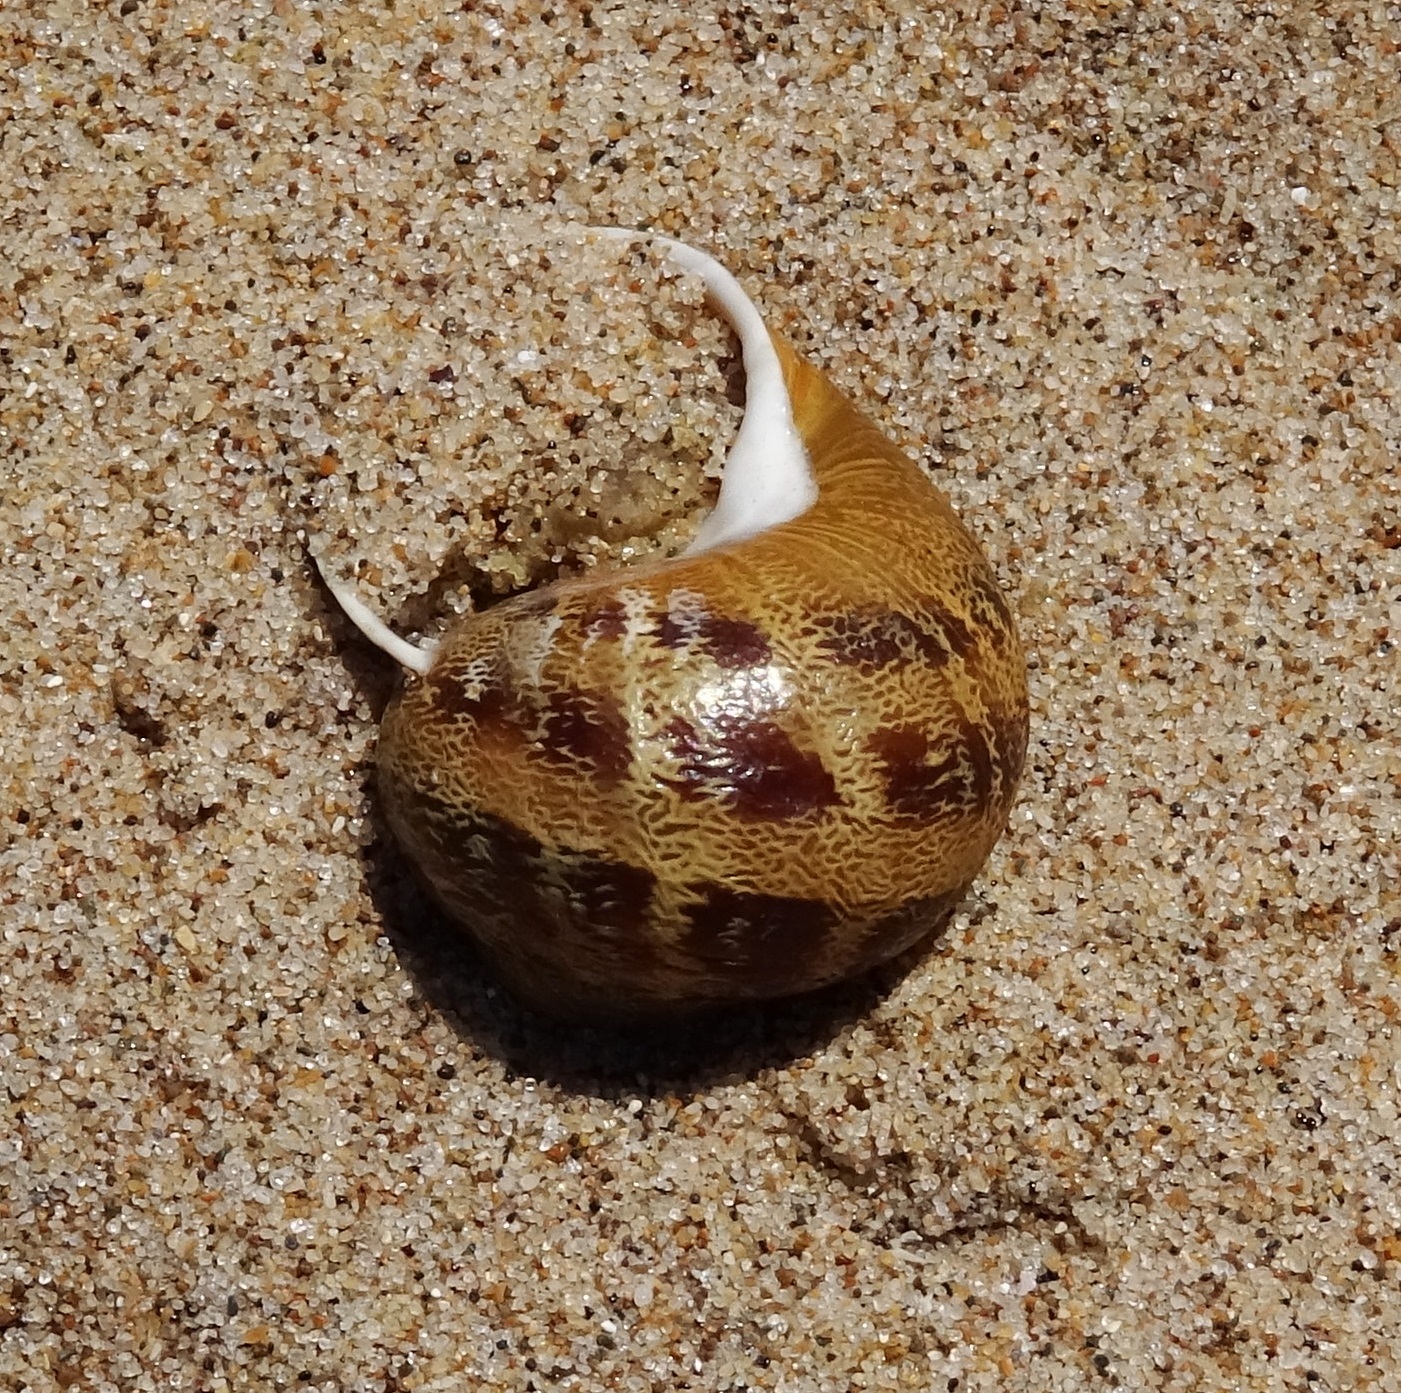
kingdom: Animalia
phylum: Mollusca
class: Gastropoda
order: Stylommatophora
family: Helicidae
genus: Cornu
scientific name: Cornu aspersum
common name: Brown garden snail
